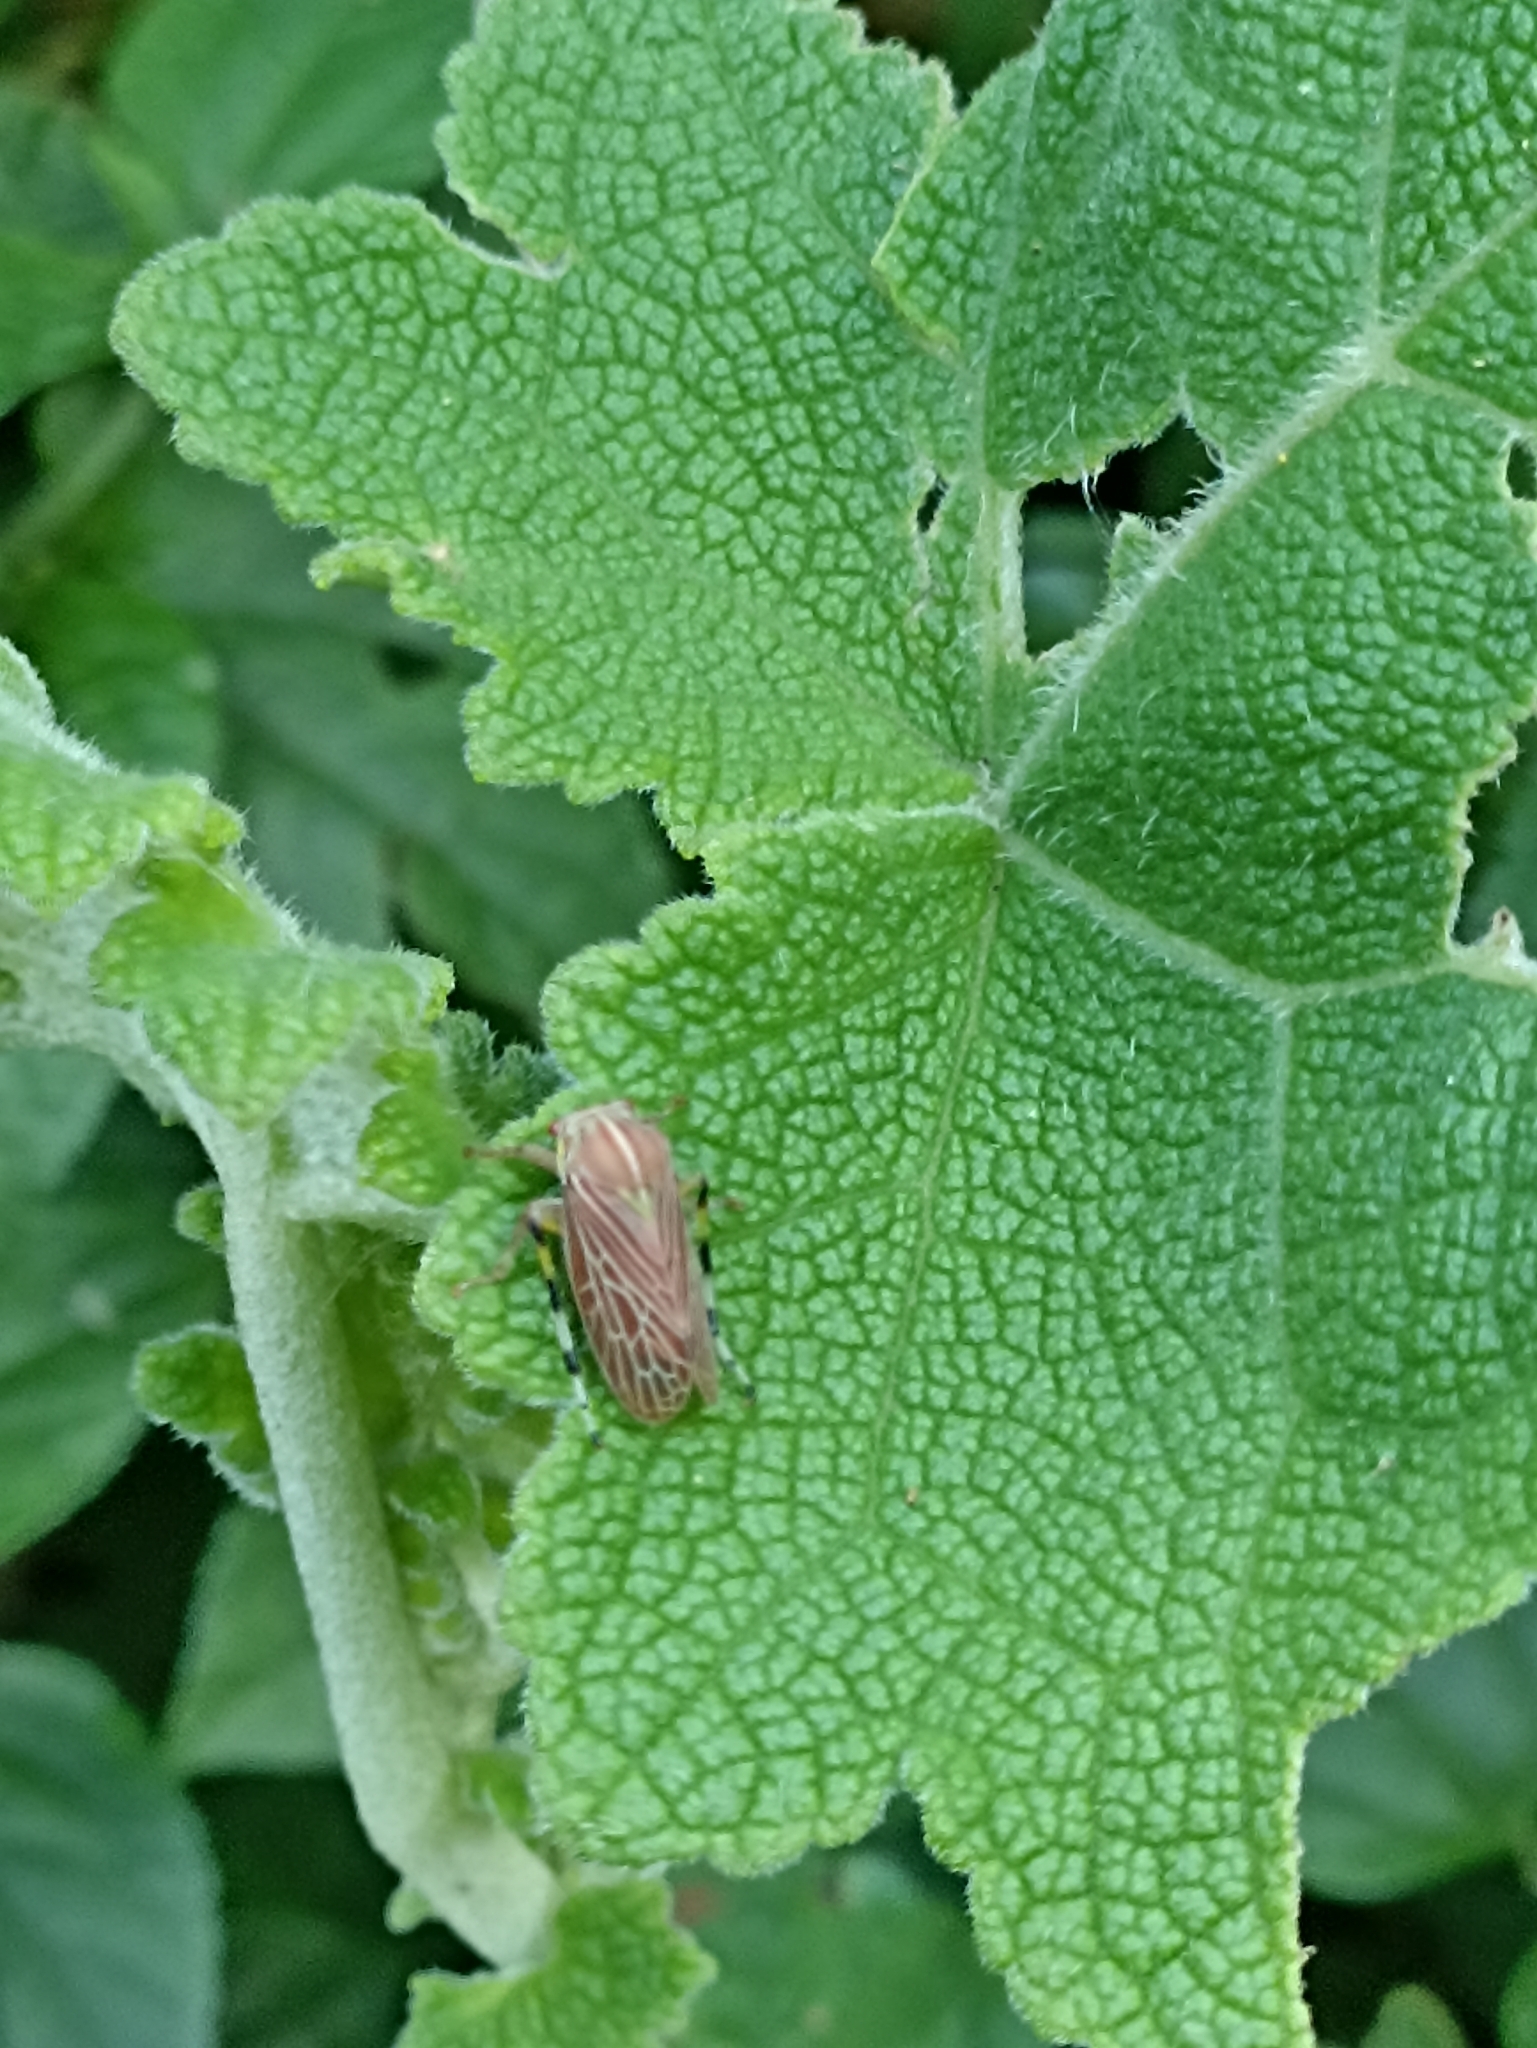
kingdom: Animalia
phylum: Arthropoda
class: Insecta
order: Hemiptera
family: Aetalionidae
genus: Aetalion
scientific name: Aetalion reticulatum
